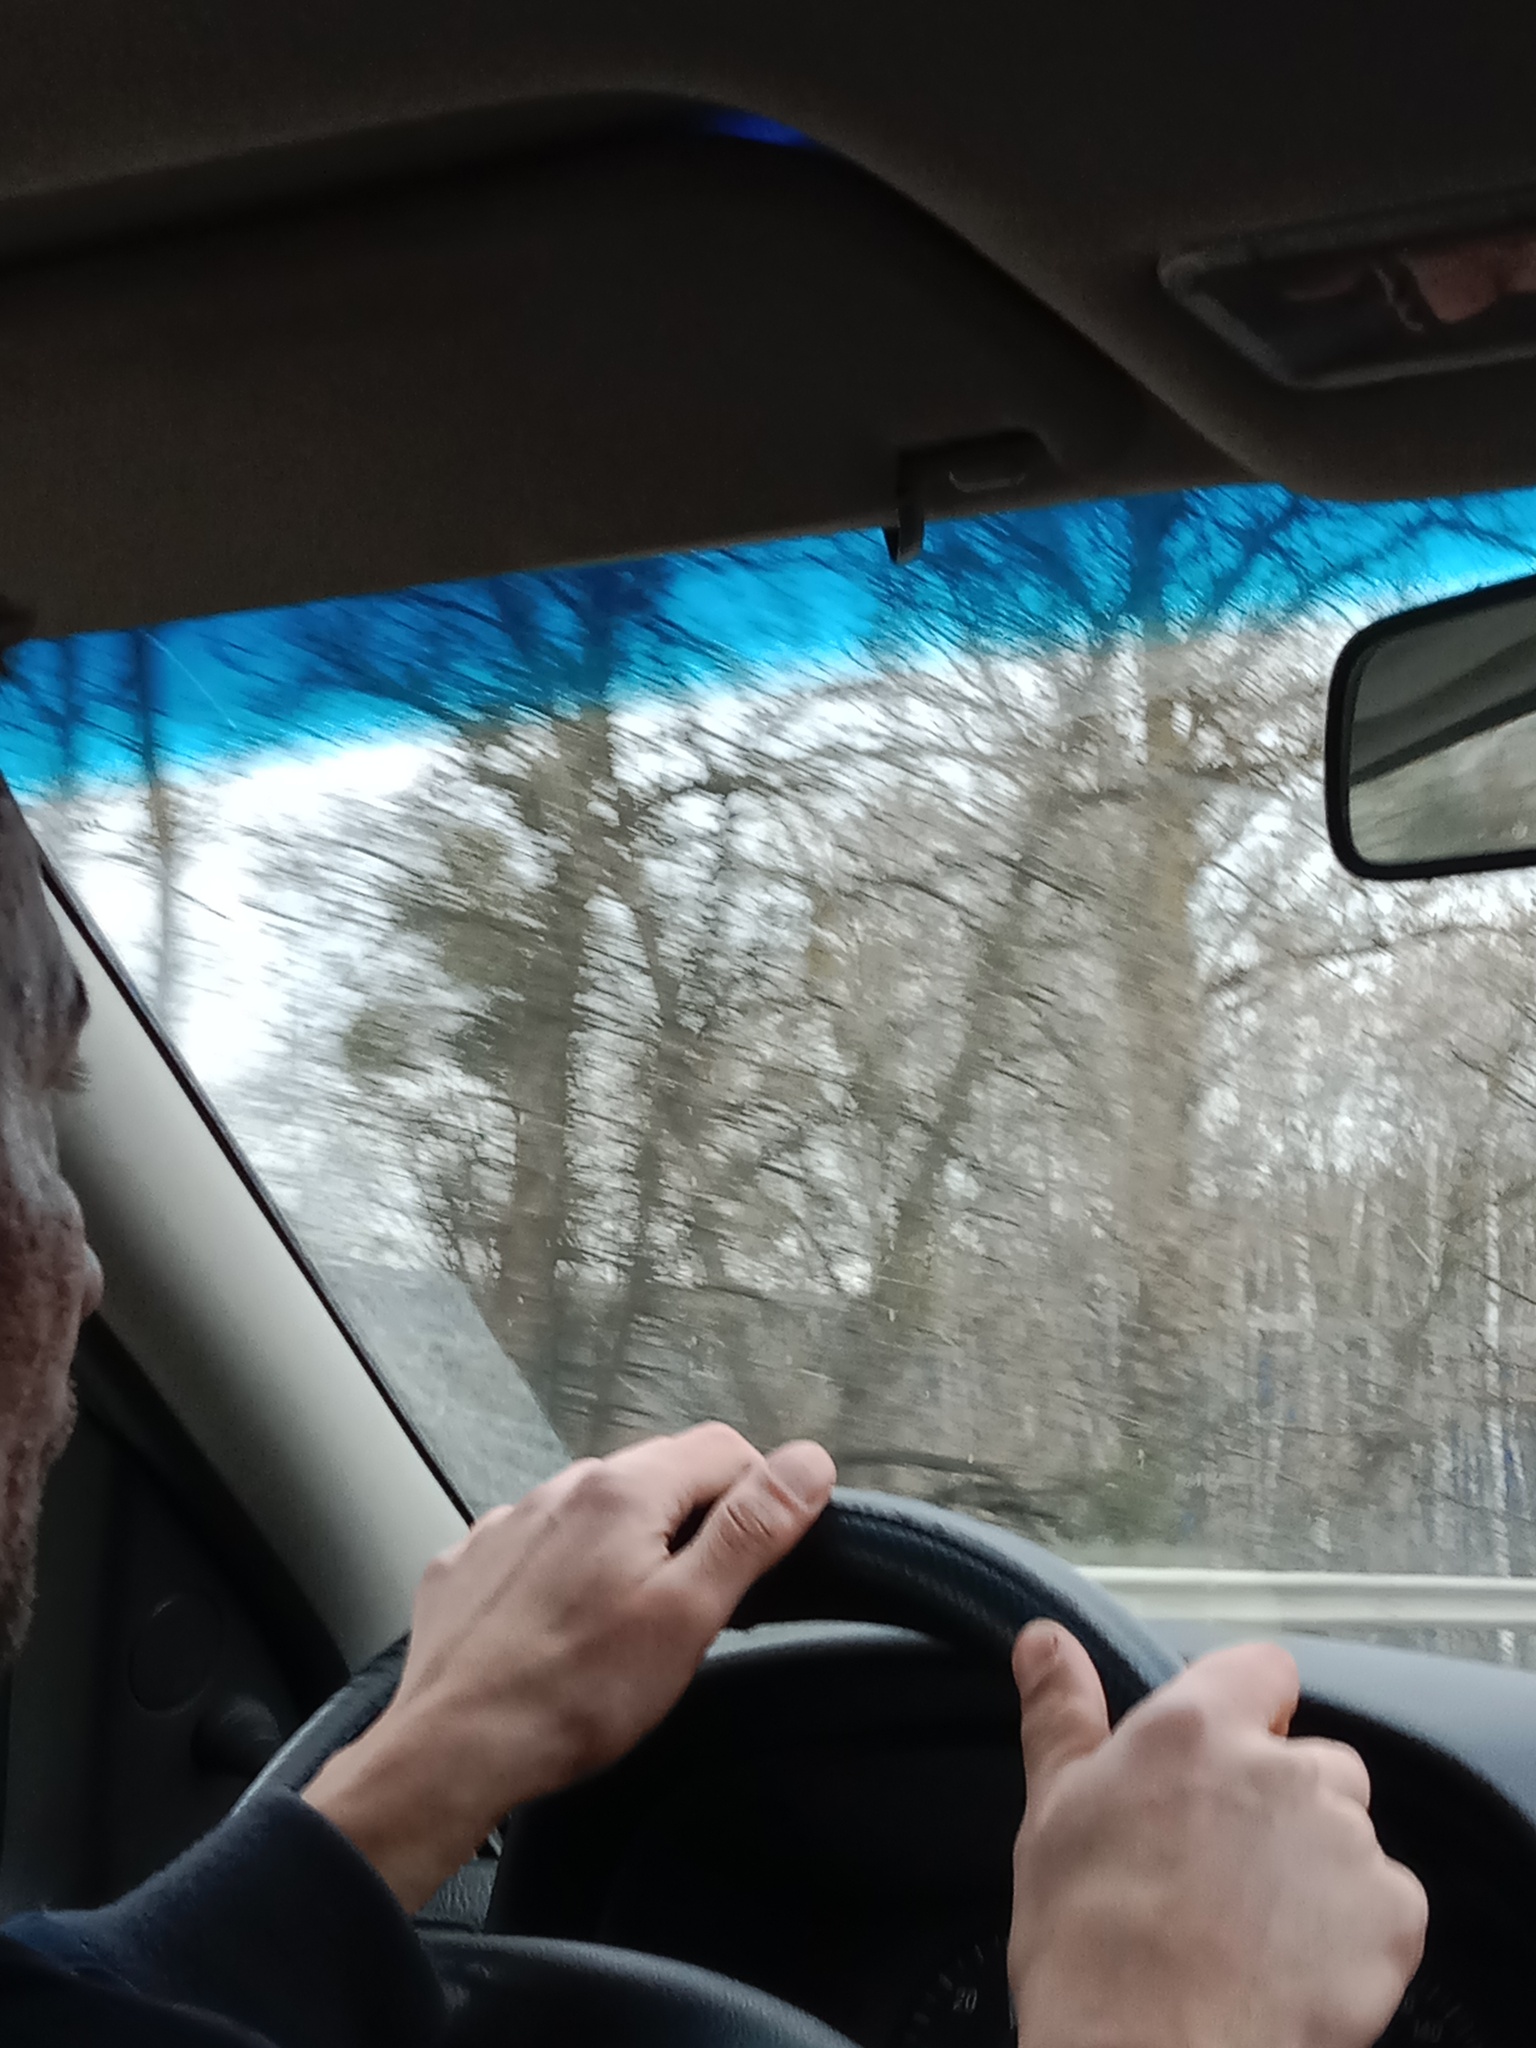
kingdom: Plantae
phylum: Tracheophyta
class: Magnoliopsida
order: Santalales
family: Viscaceae
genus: Viscum
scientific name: Viscum album
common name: Mistletoe
